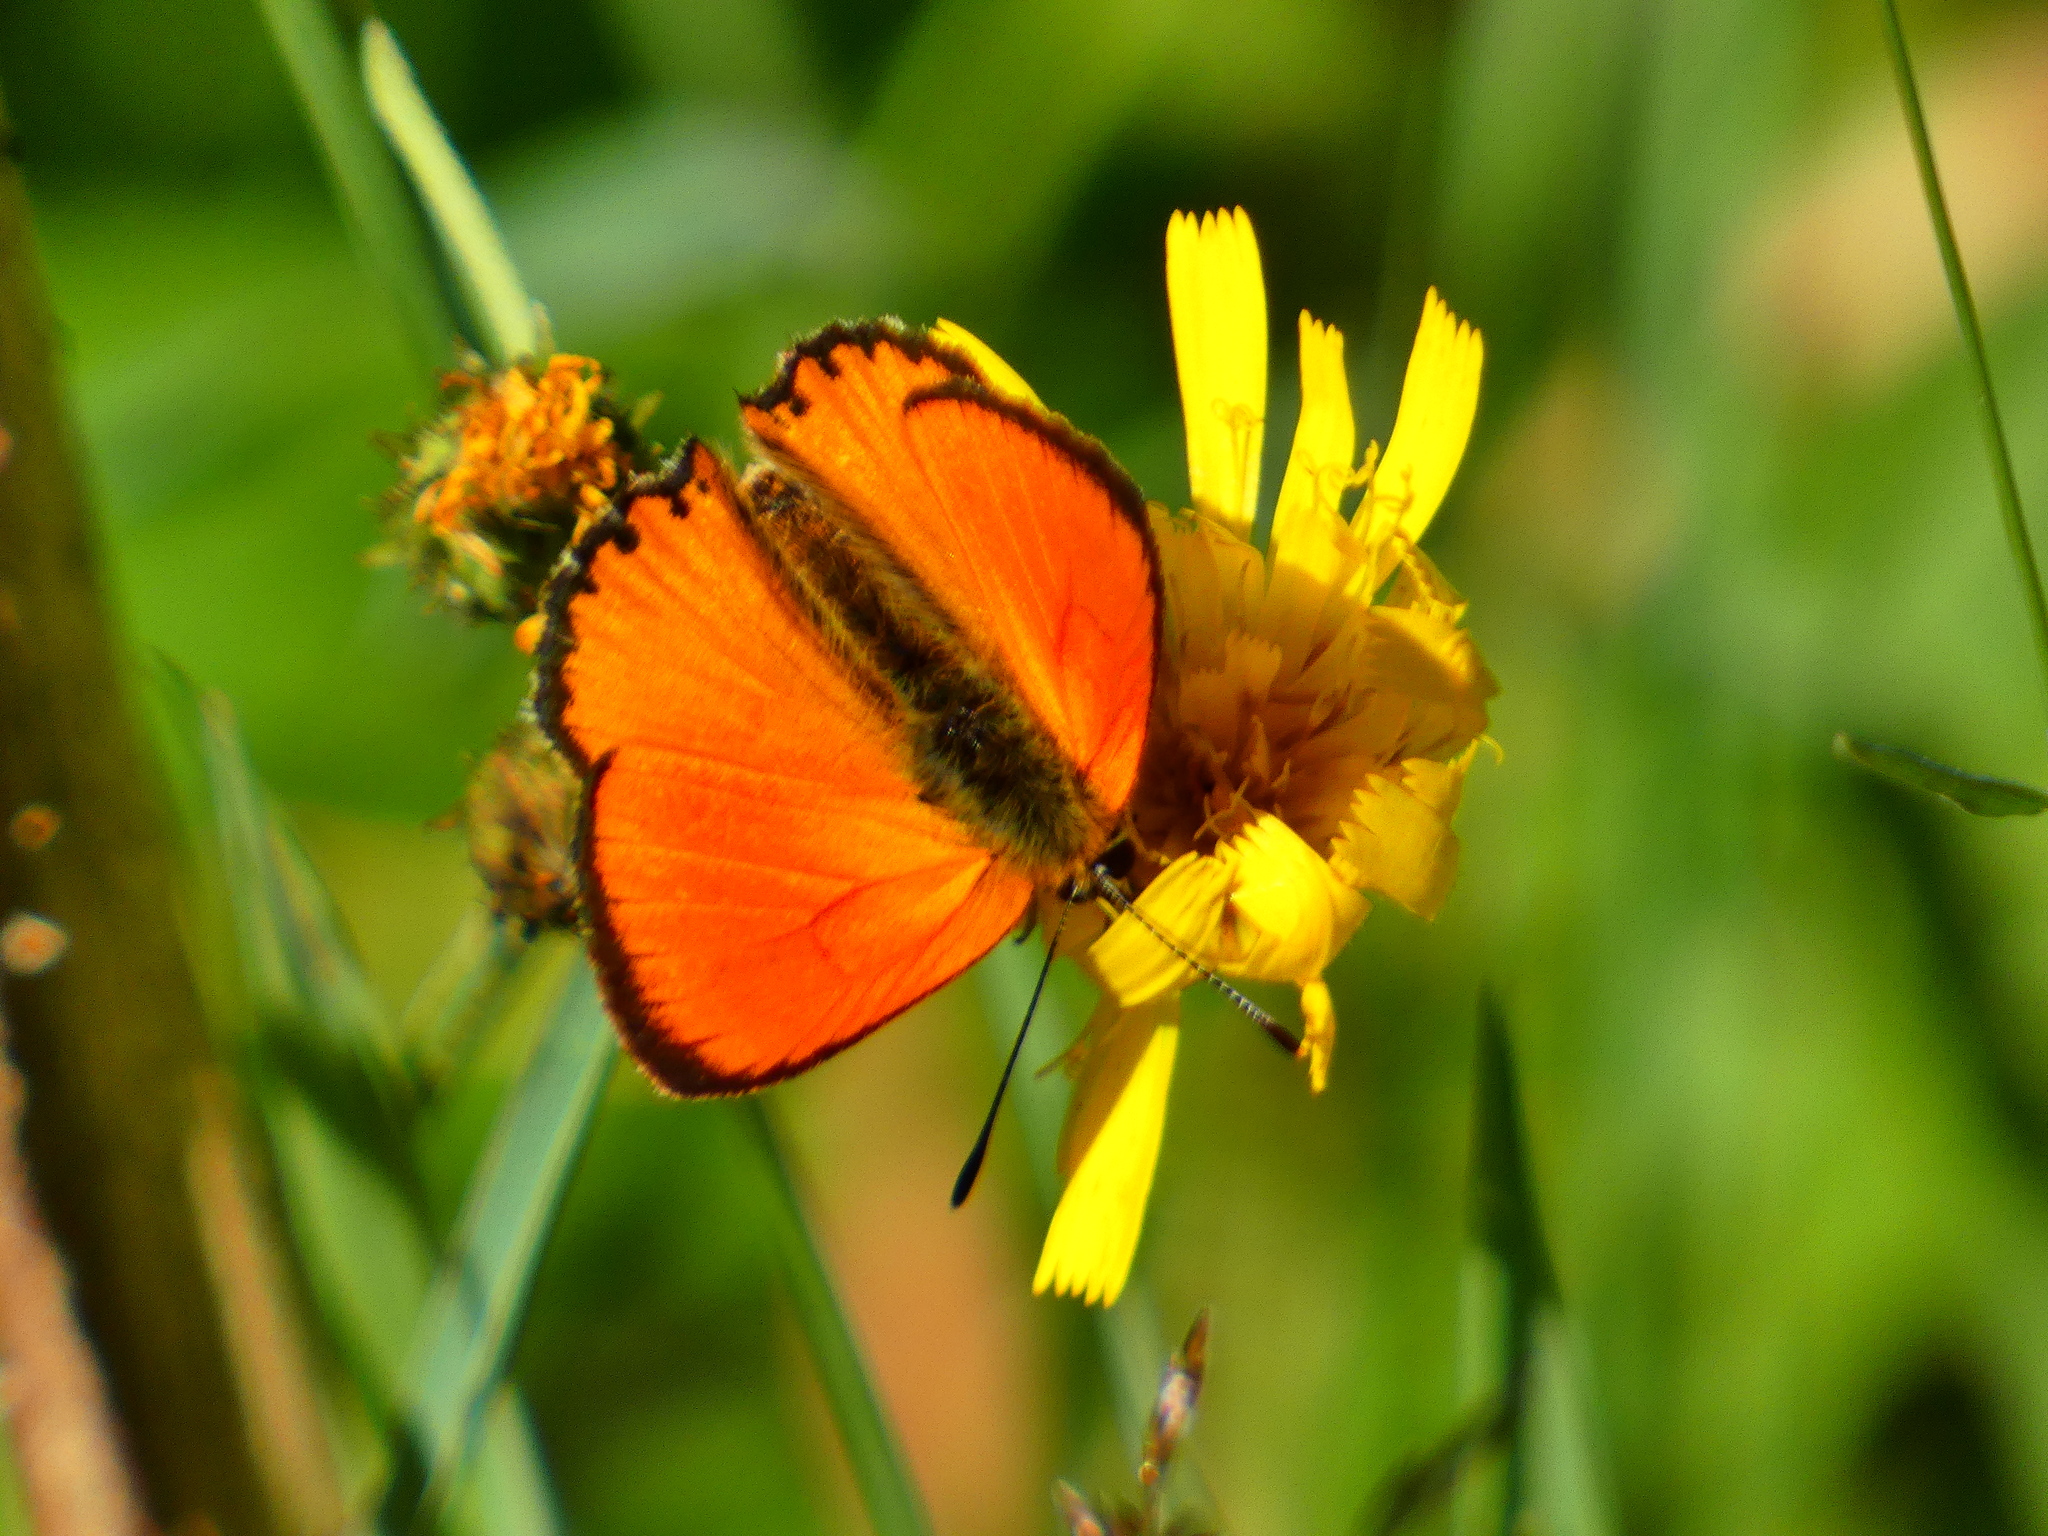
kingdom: Animalia
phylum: Arthropoda
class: Insecta
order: Lepidoptera
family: Lycaenidae
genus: Lycaena
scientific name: Lycaena virgaureae
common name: Scarce copper
